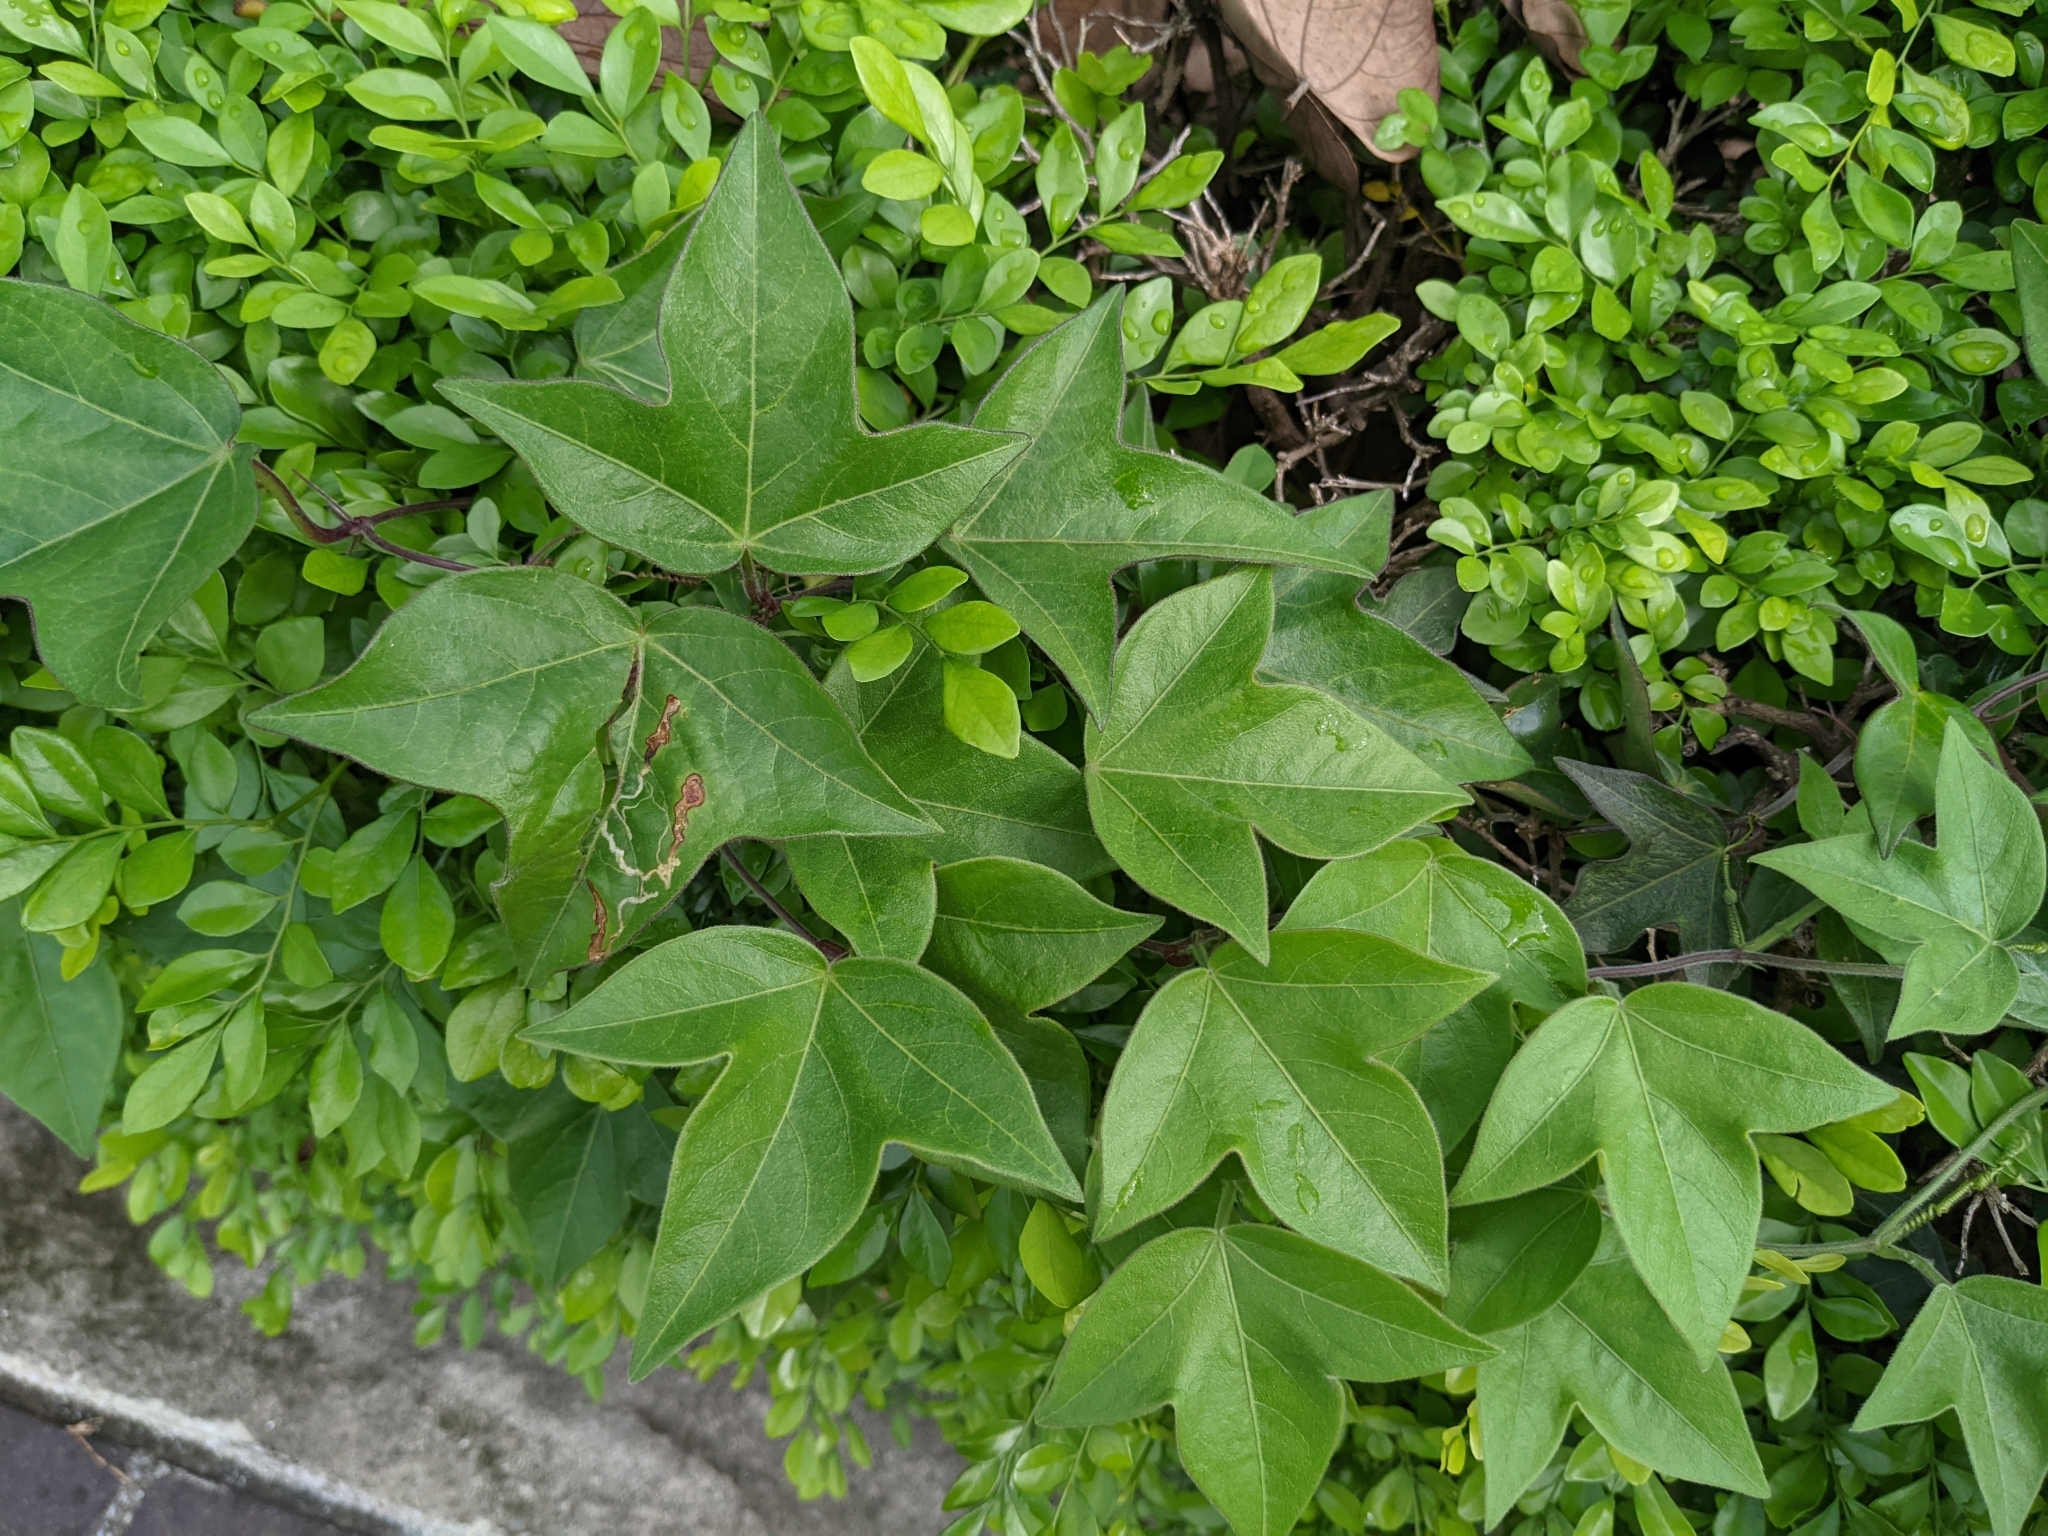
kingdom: Plantae
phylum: Tracheophyta
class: Magnoliopsida
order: Malpighiales
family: Passifloraceae
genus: Passiflora
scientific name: Passiflora suberosa
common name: Wild passionfruit
